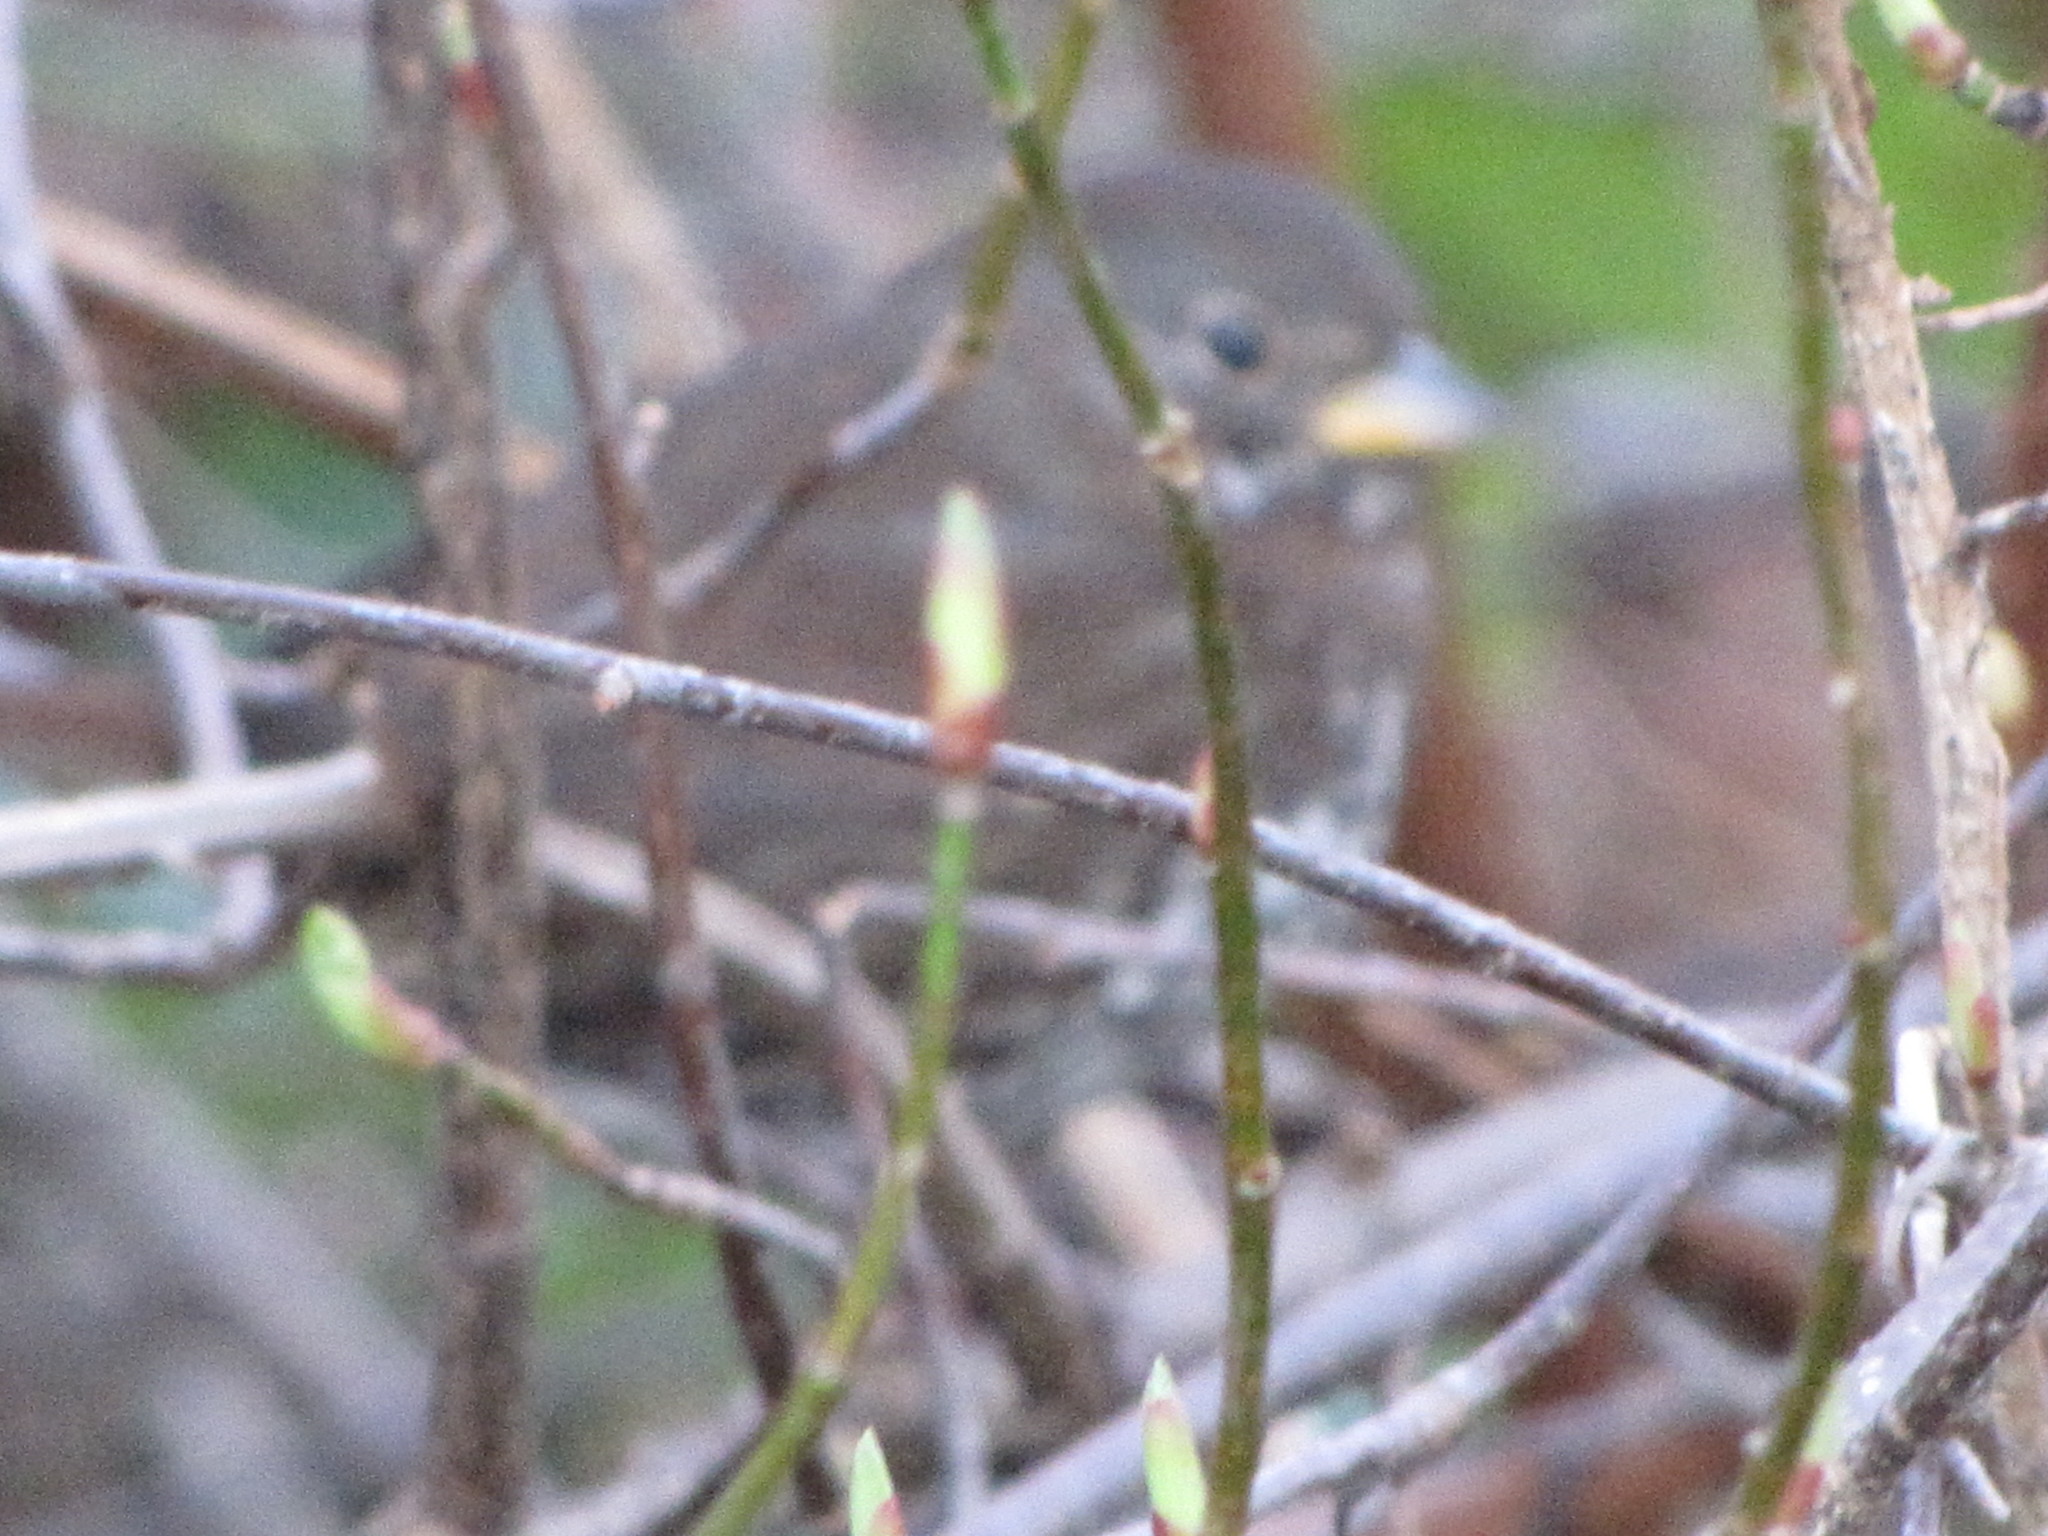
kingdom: Animalia
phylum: Chordata
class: Aves
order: Passeriformes
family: Passerellidae
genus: Passerella
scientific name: Passerella iliaca
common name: Fox sparrow
